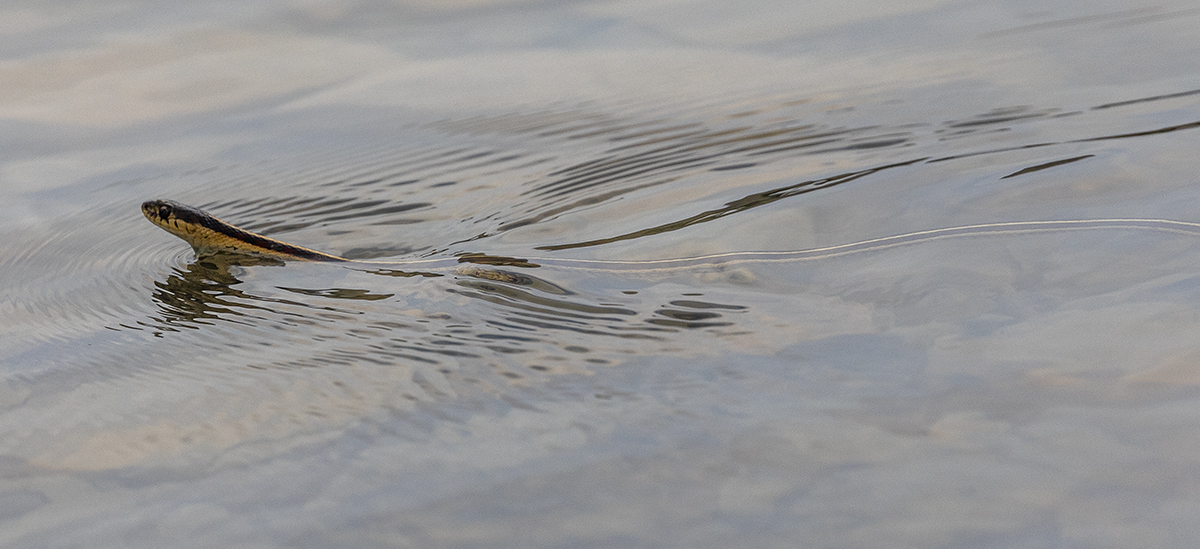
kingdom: Animalia
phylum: Chordata
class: Squamata
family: Colubridae
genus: Thamnophis
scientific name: Thamnophis sirtalis
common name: Common garter snake
